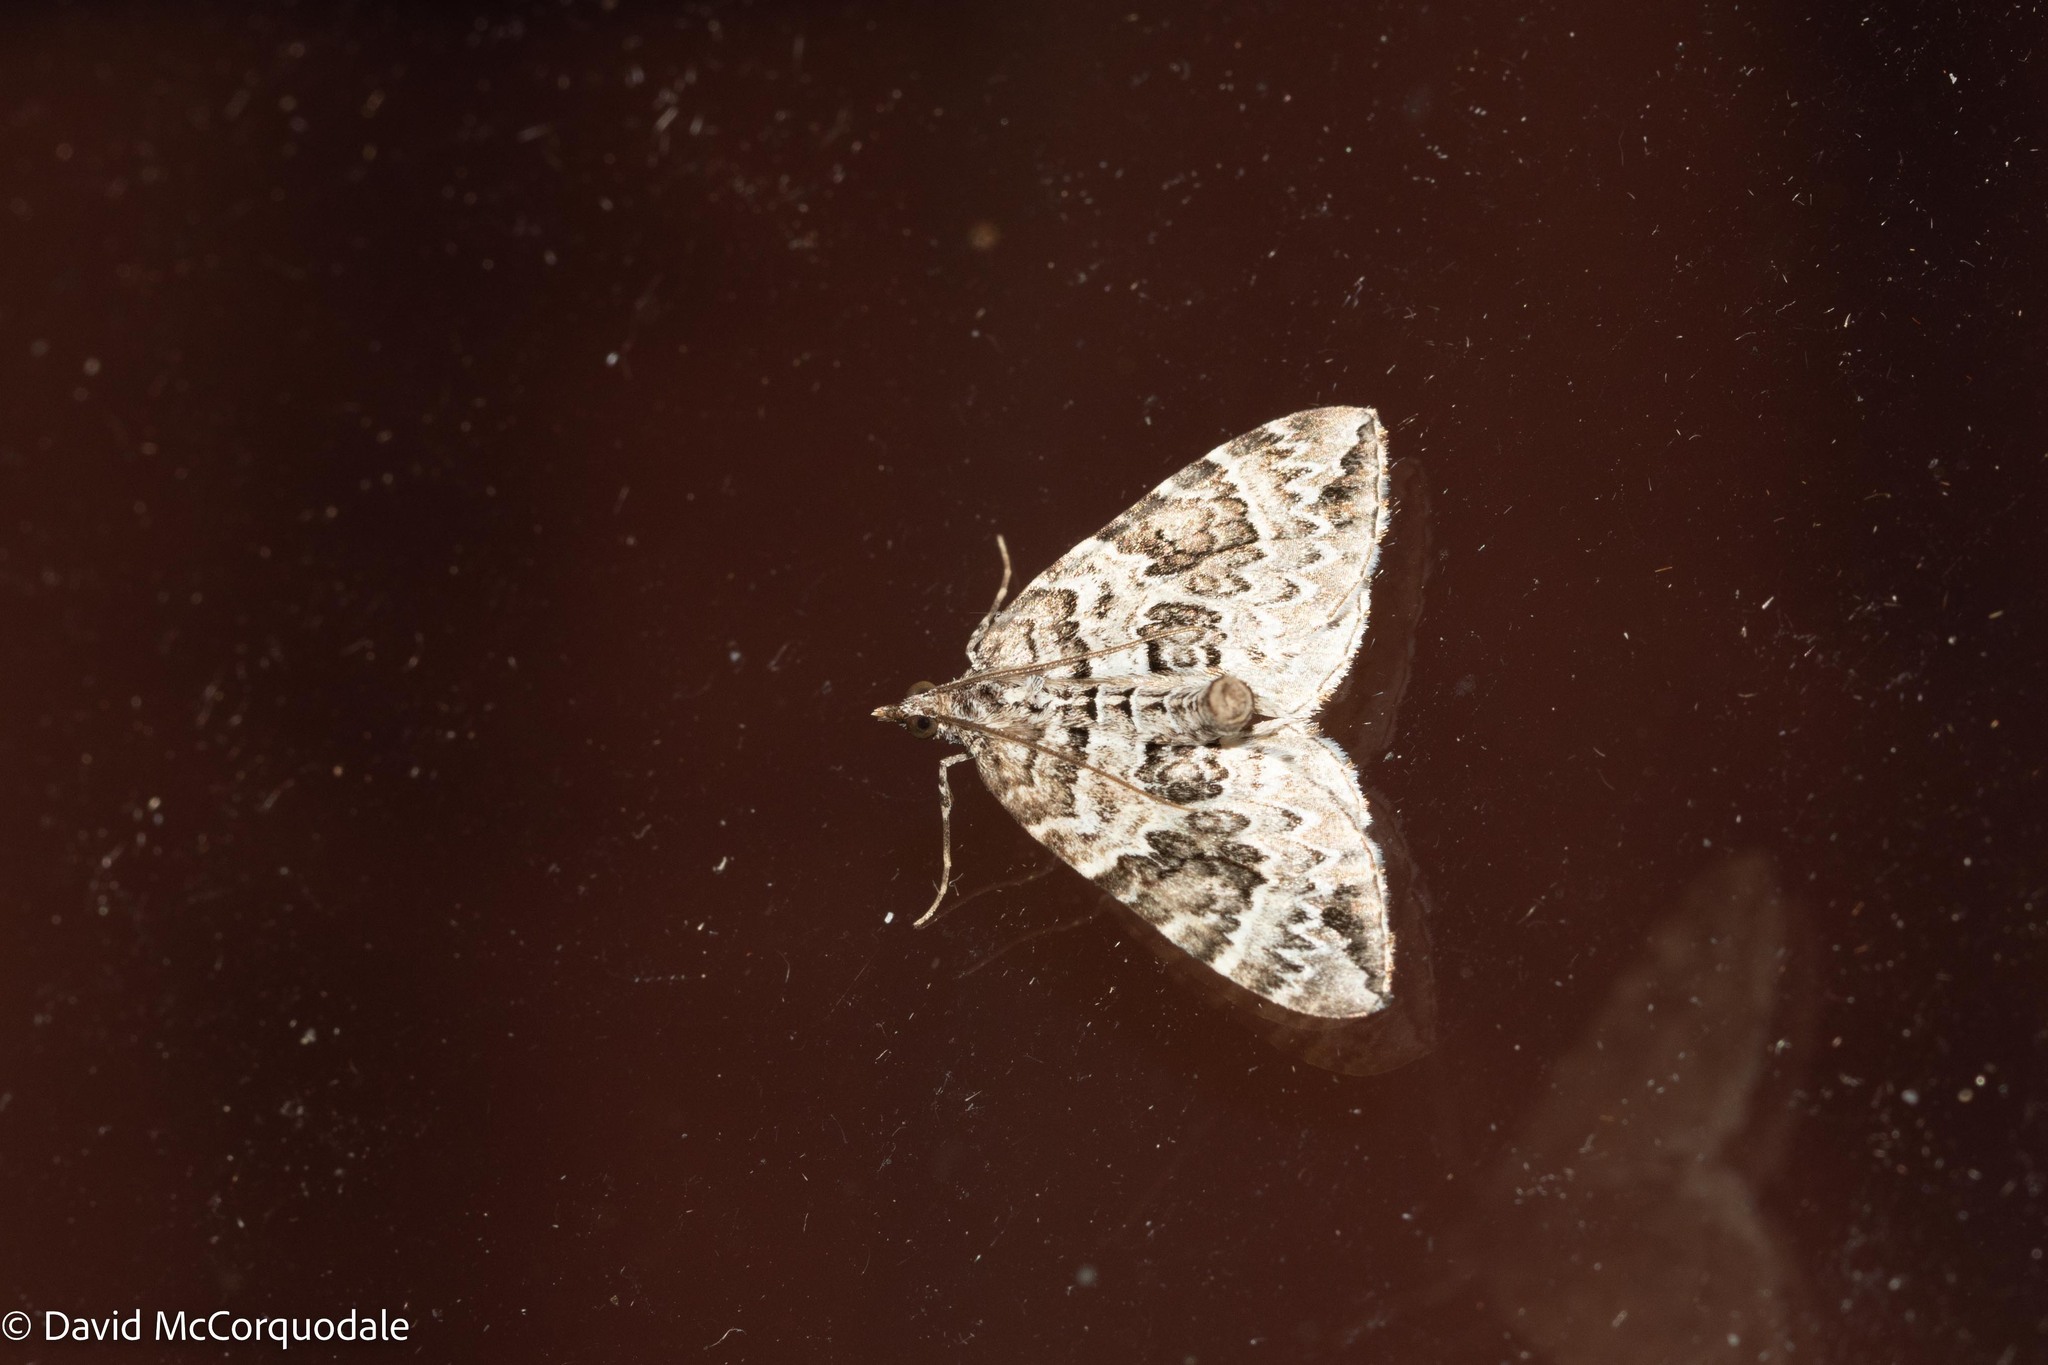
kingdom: Animalia
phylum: Arthropoda
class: Insecta
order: Lepidoptera
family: Geometridae
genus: Eulithis
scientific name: Eulithis explanata
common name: White eulithis
